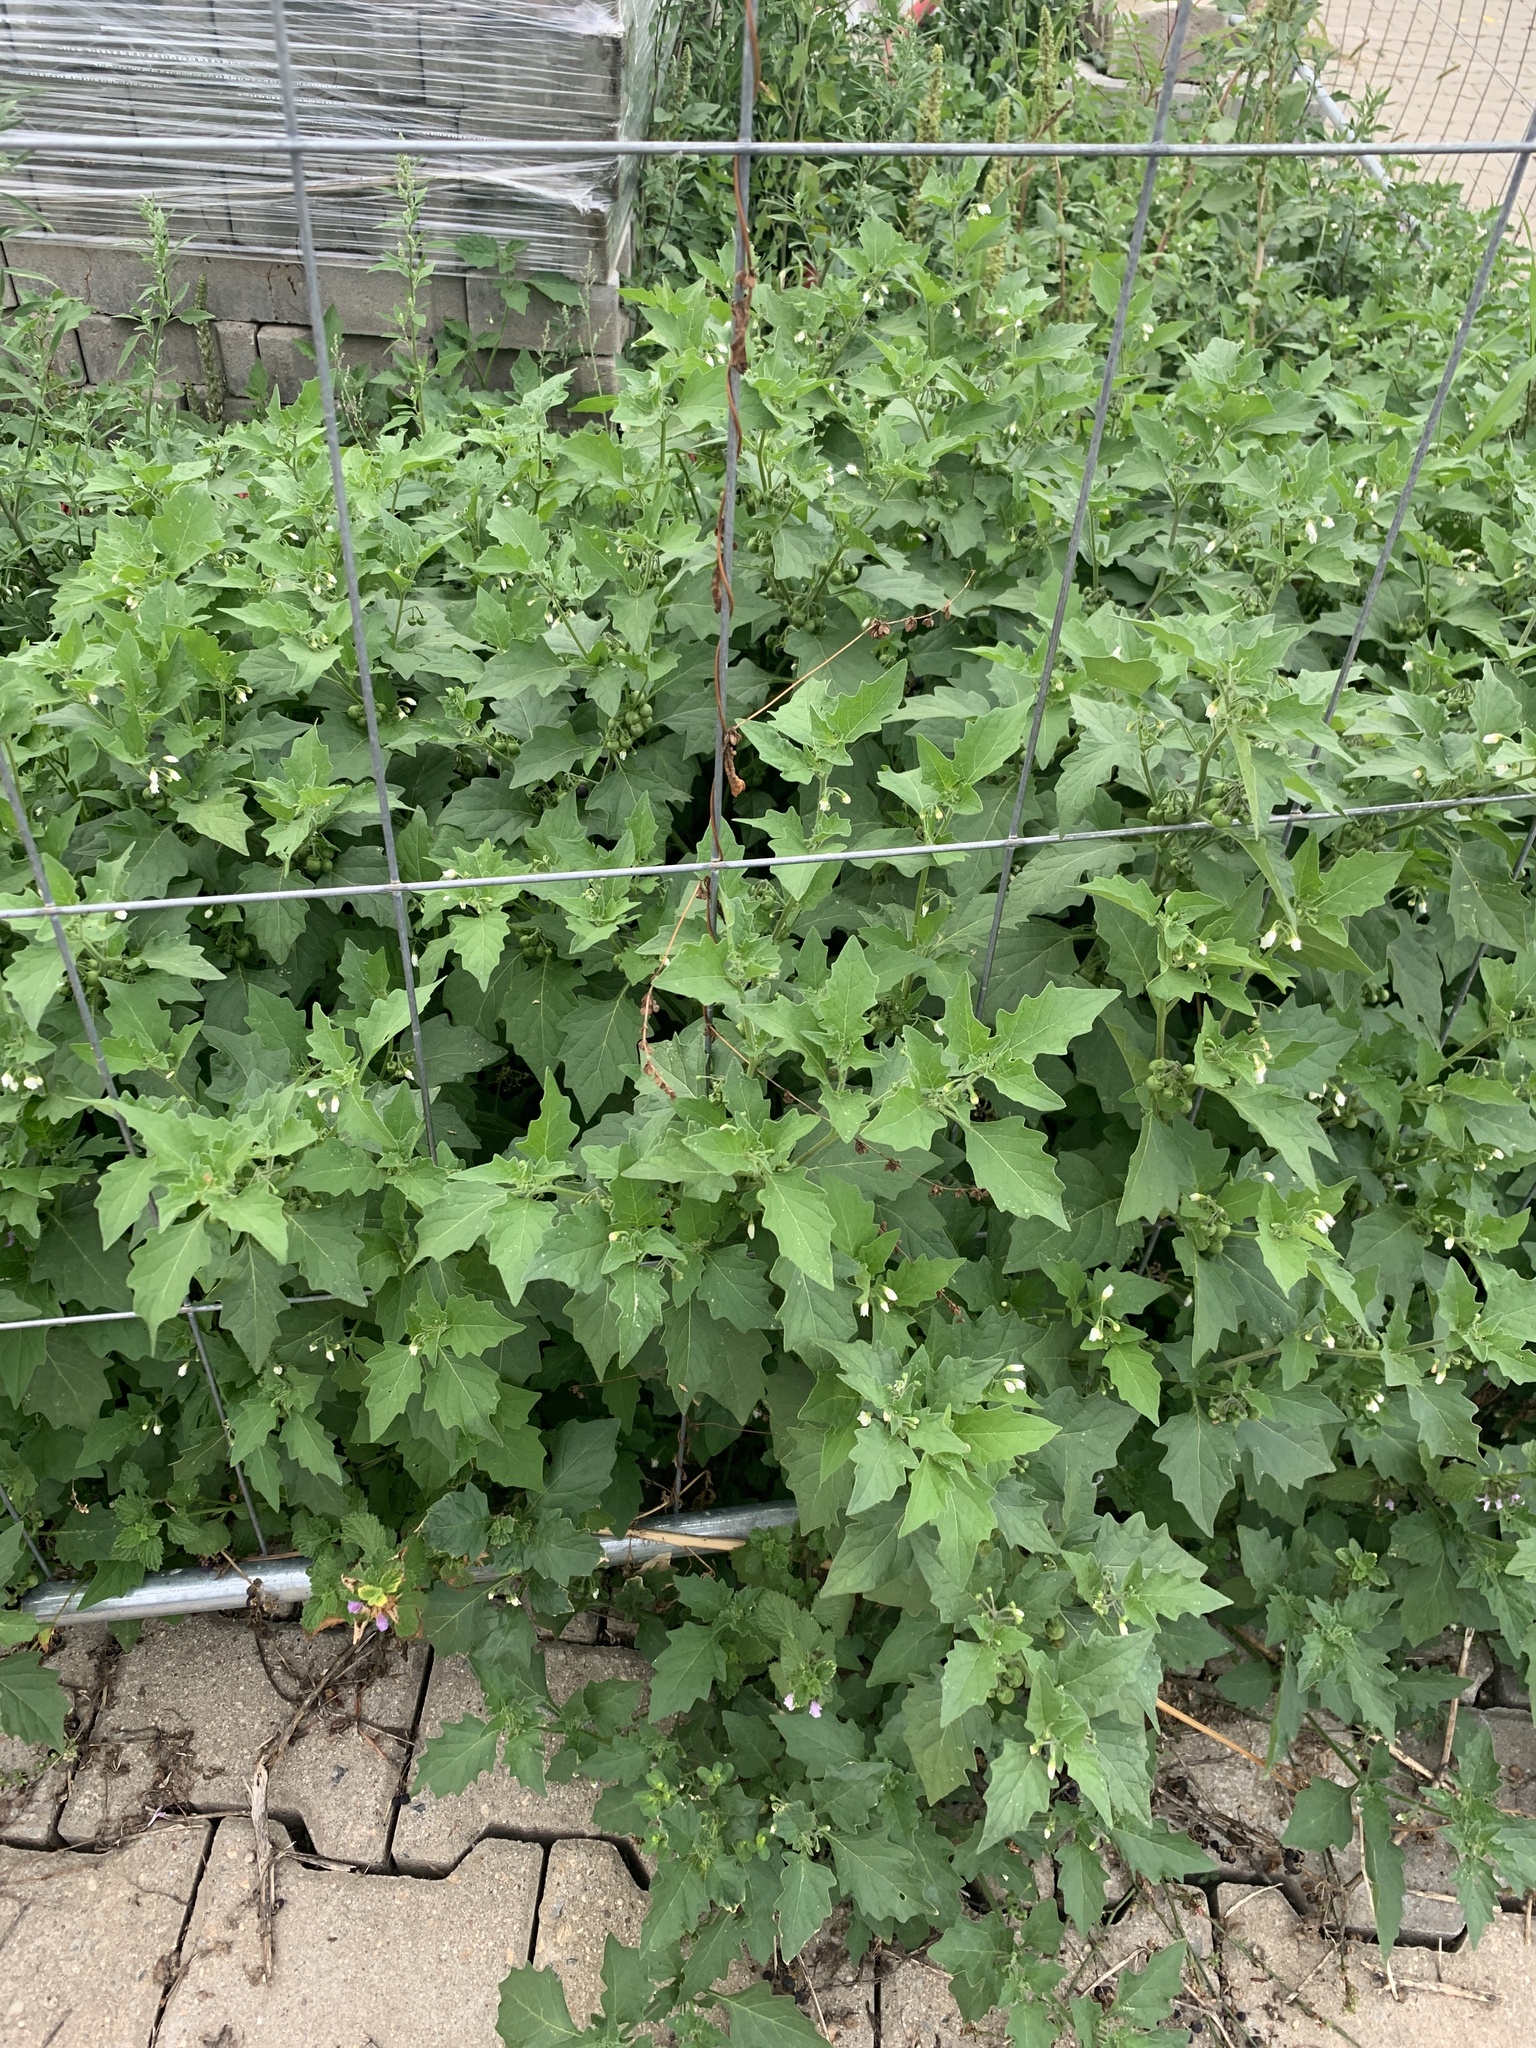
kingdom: Plantae
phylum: Tracheophyta
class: Magnoliopsida
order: Solanales
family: Solanaceae
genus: Solanum
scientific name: Solanum nigrum
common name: Black nightshade
